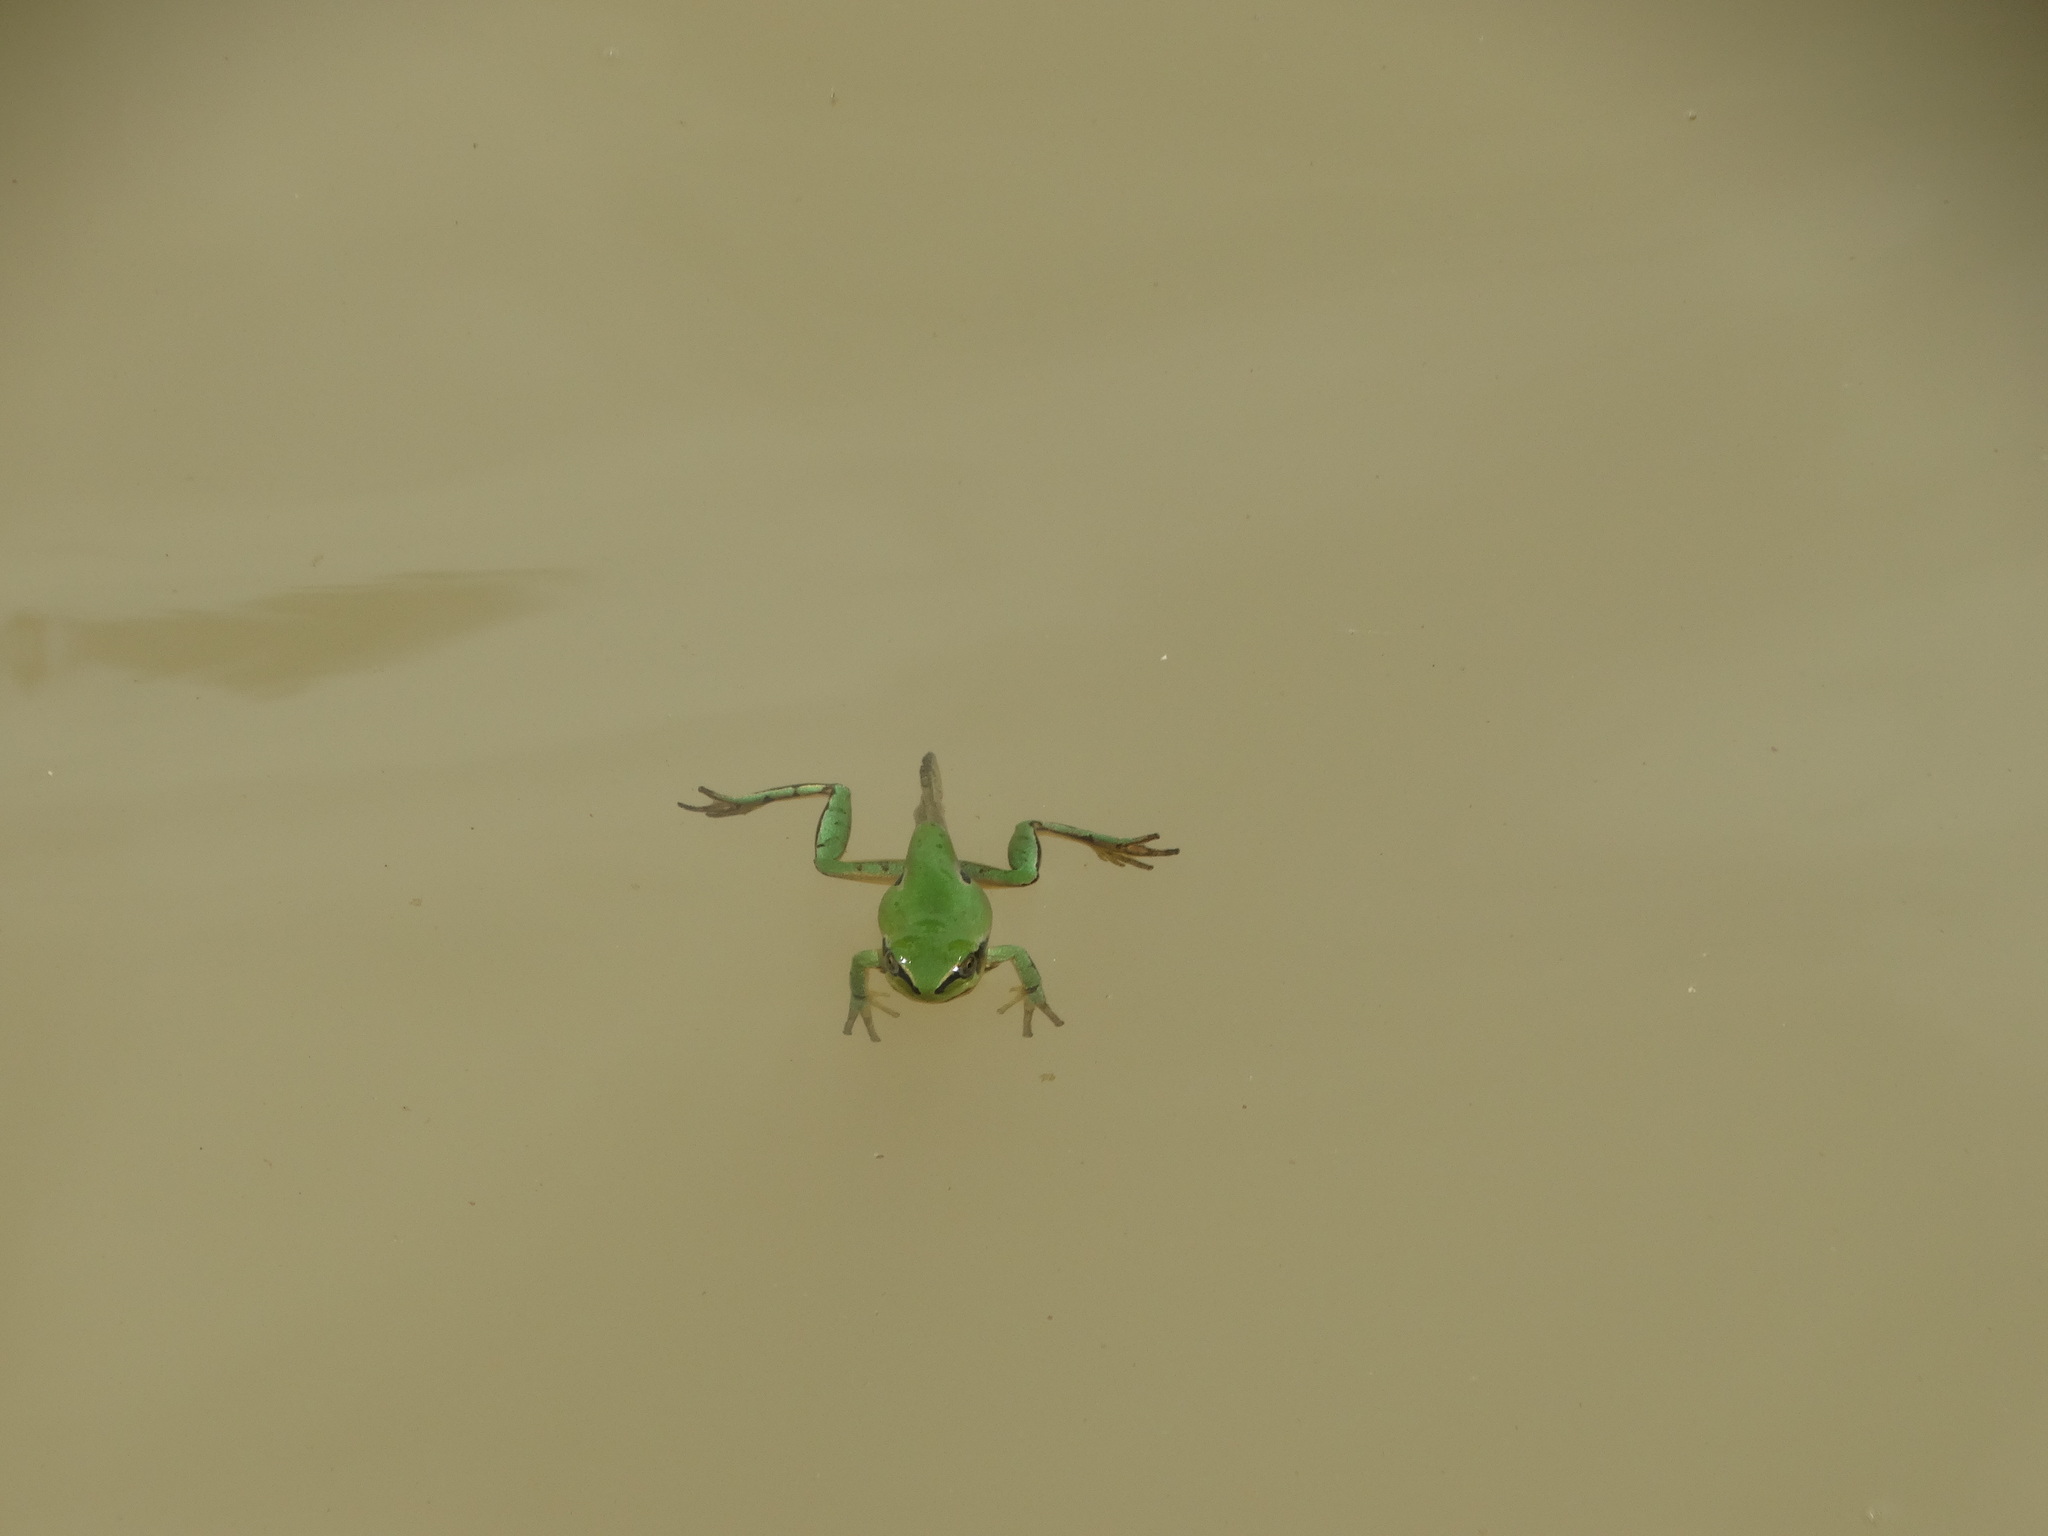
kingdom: Animalia
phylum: Chordata
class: Amphibia
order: Anura
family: Hylidae
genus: Dryophytes
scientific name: Dryophytes eximius
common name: Mountain treefrog
